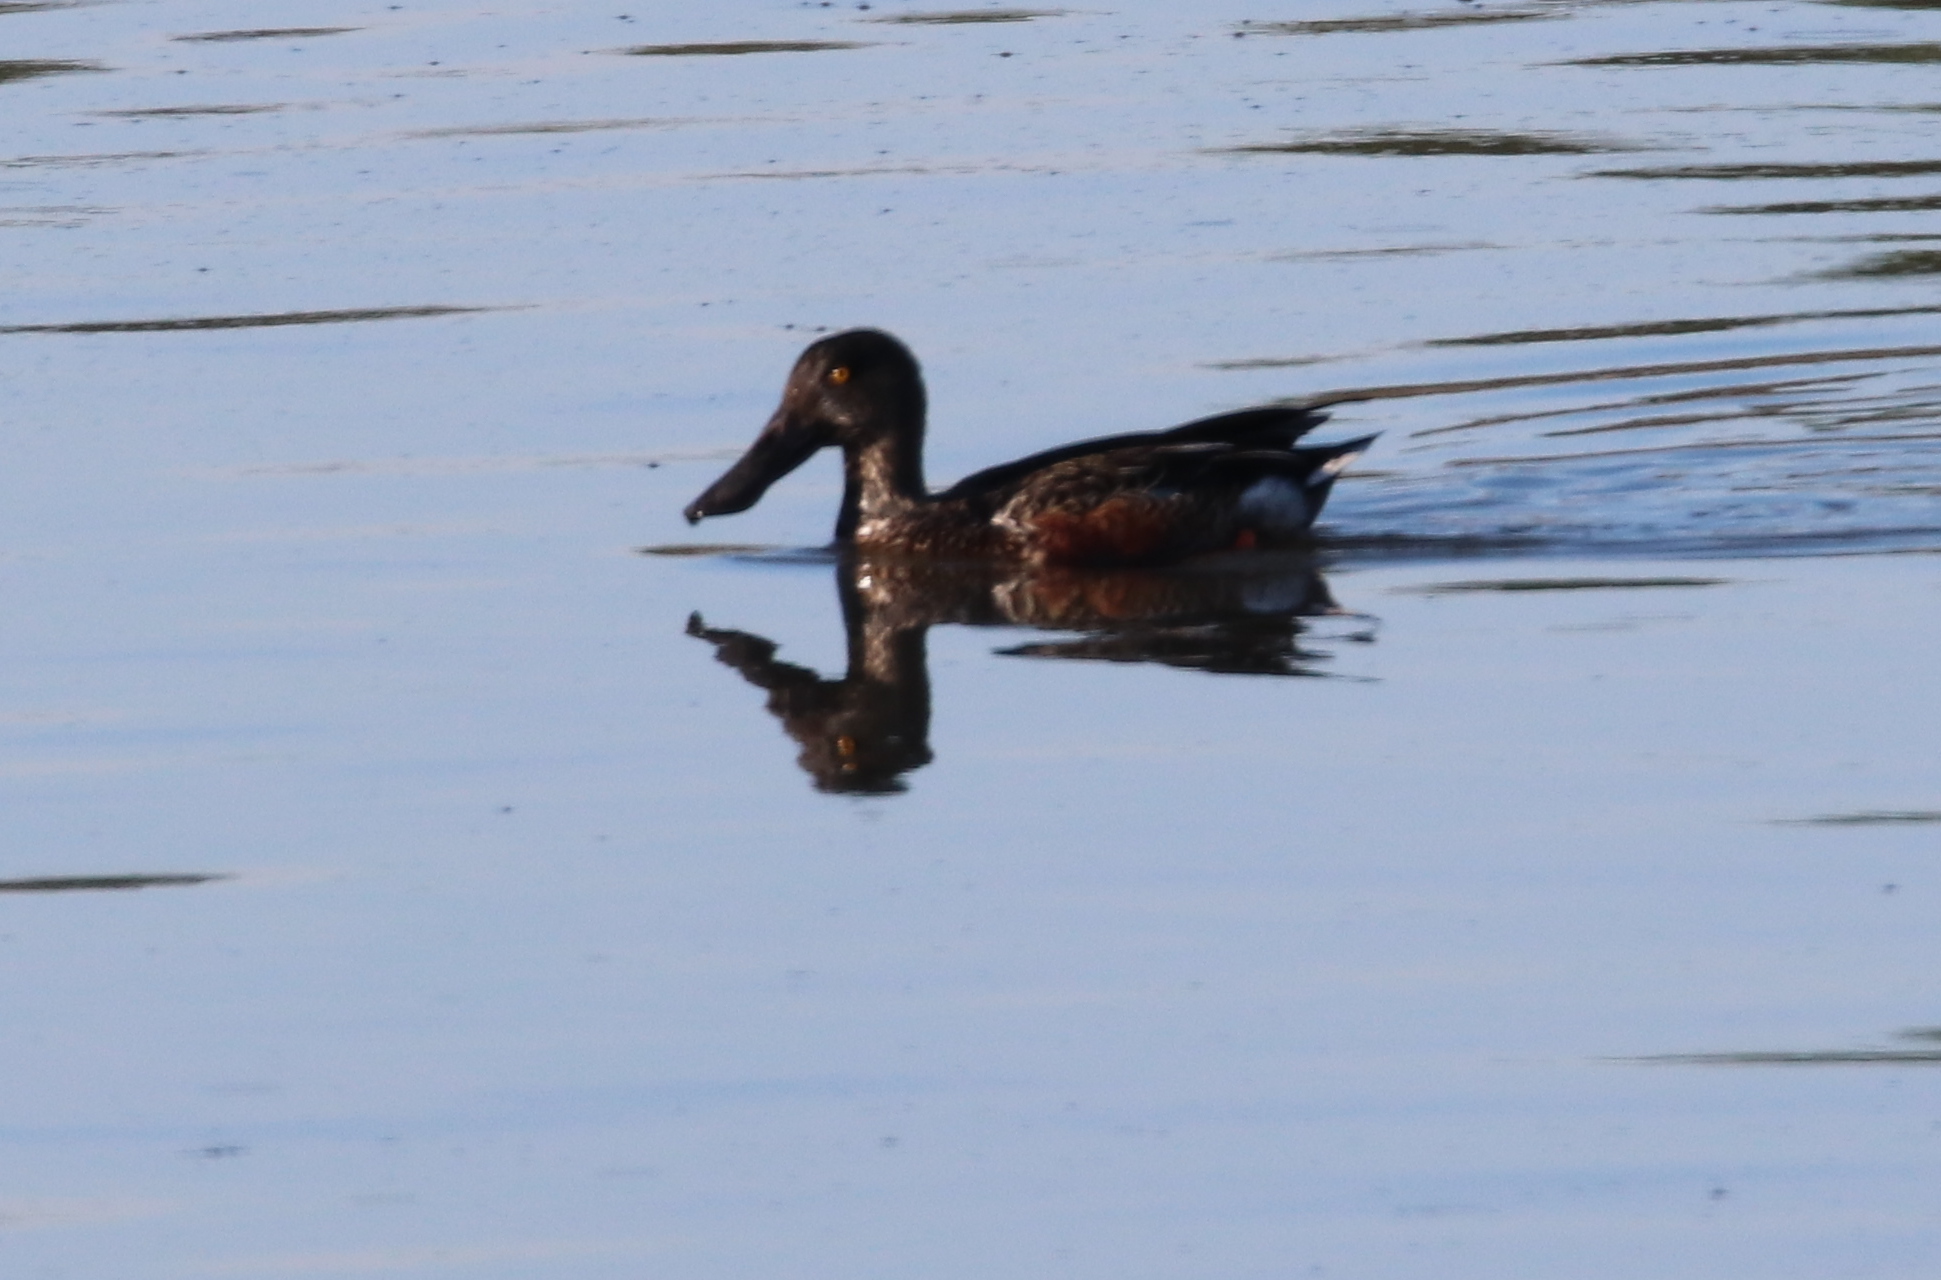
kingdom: Animalia
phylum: Chordata
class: Aves
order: Anseriformes
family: Anatidae
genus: Spatula
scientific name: Spatula clypeata
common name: Northern shoveler
